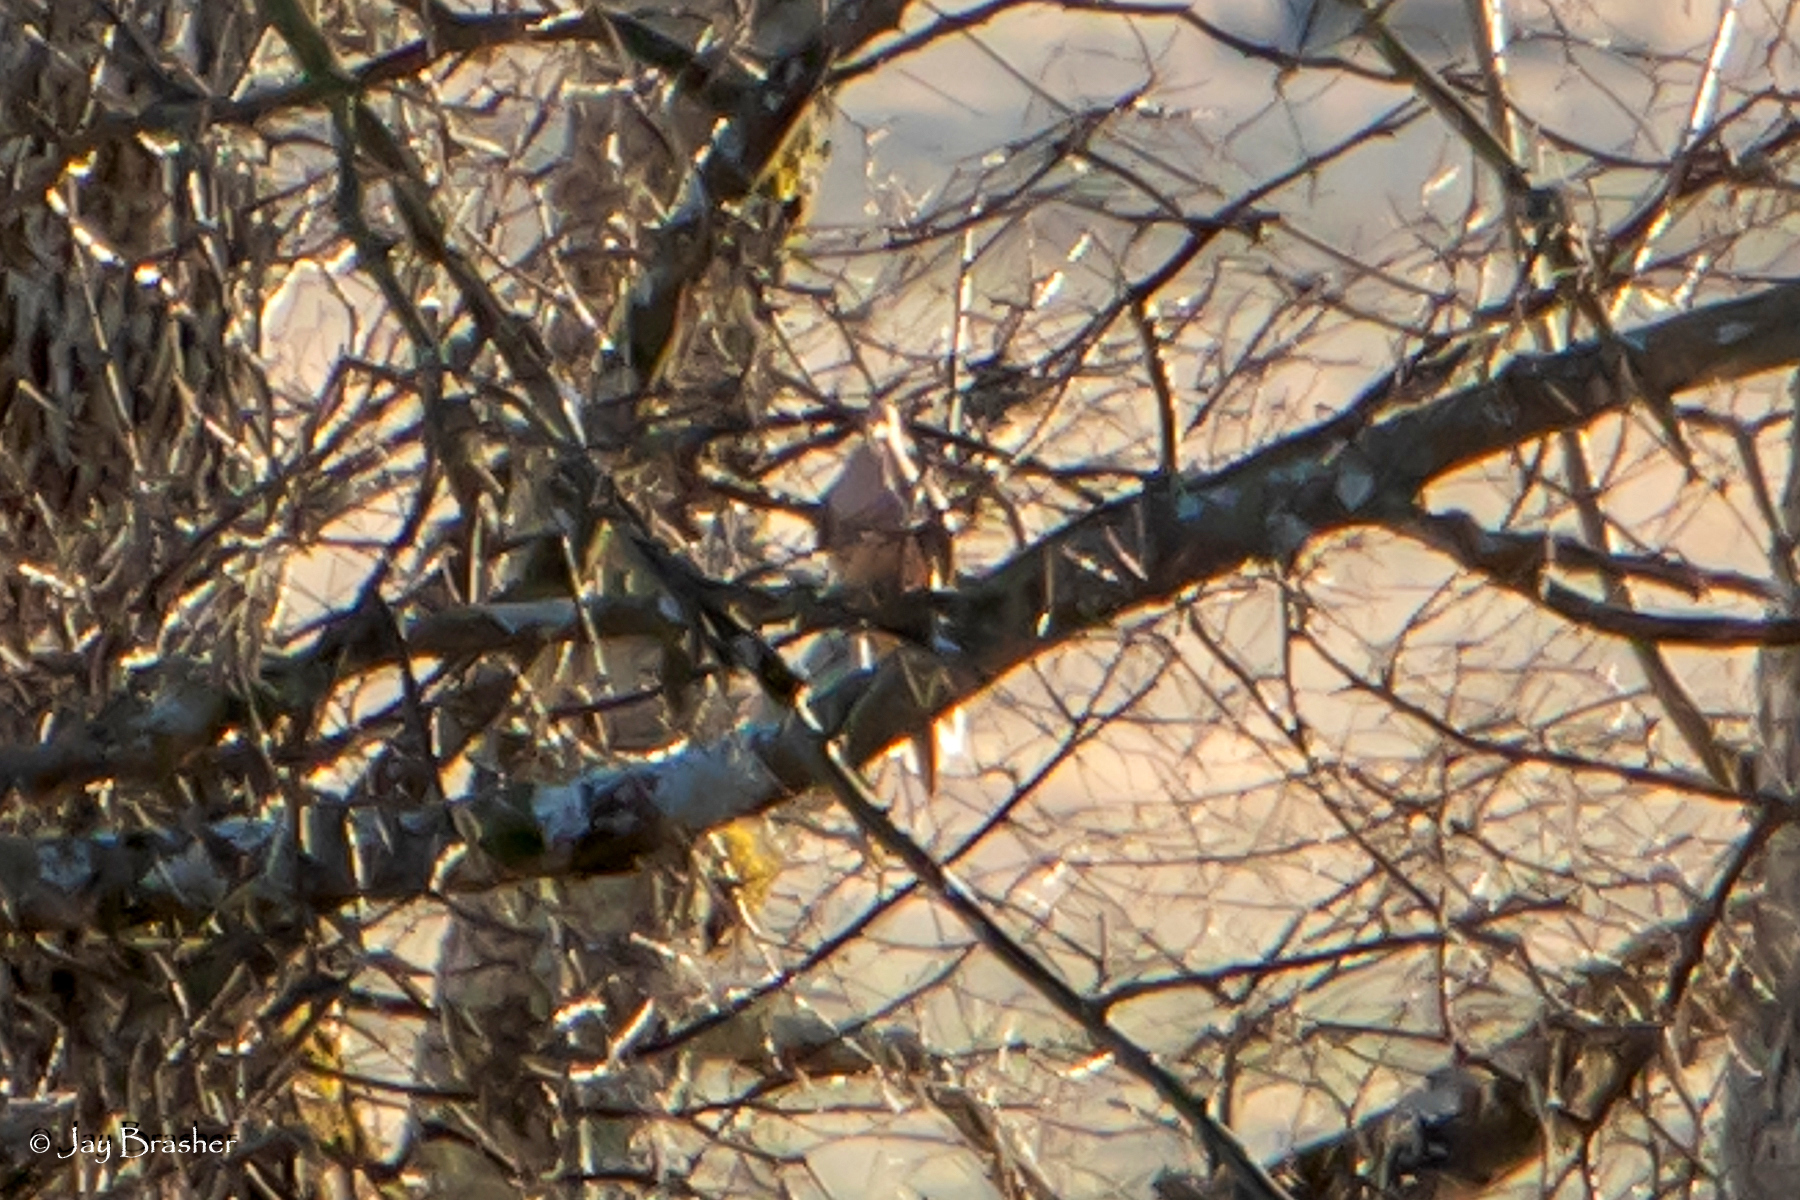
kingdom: Animalia
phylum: Chordata
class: Aves
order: Columbiformes
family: Columbidae
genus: Zenaida
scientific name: Zenaida macroura
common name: Mourning dove
